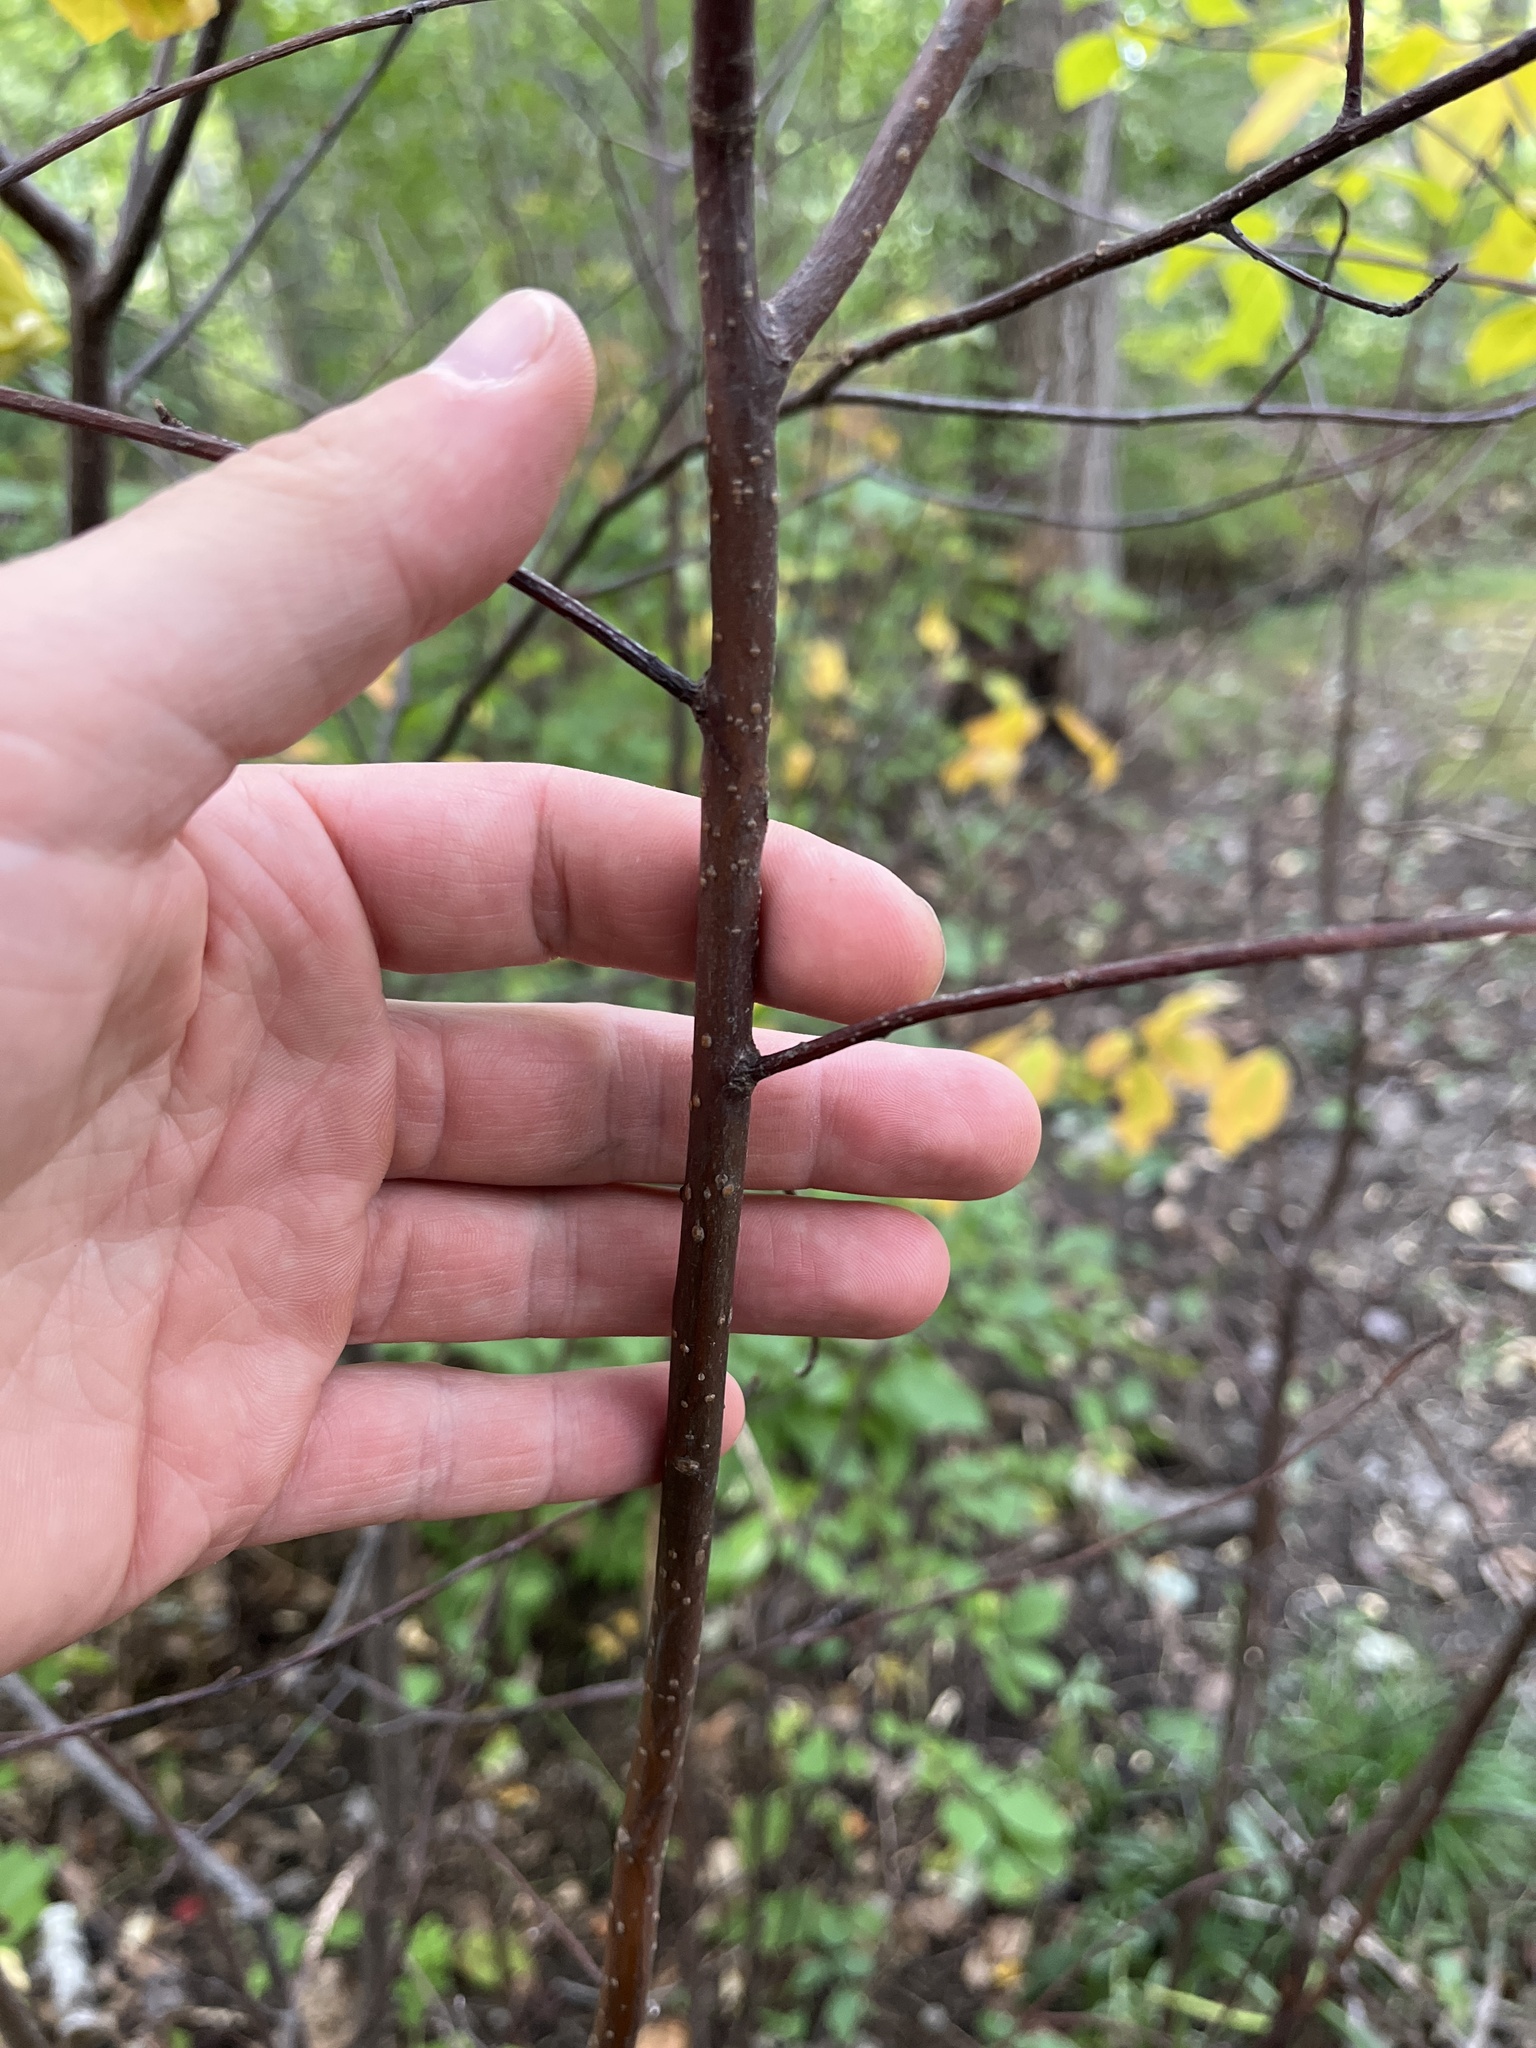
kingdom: Plantae
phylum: Tracheophyta
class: Magnoliopsida
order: Rosales
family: Rosaceae
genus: Prunus
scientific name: Prunus virginiana
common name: Chokecherry
